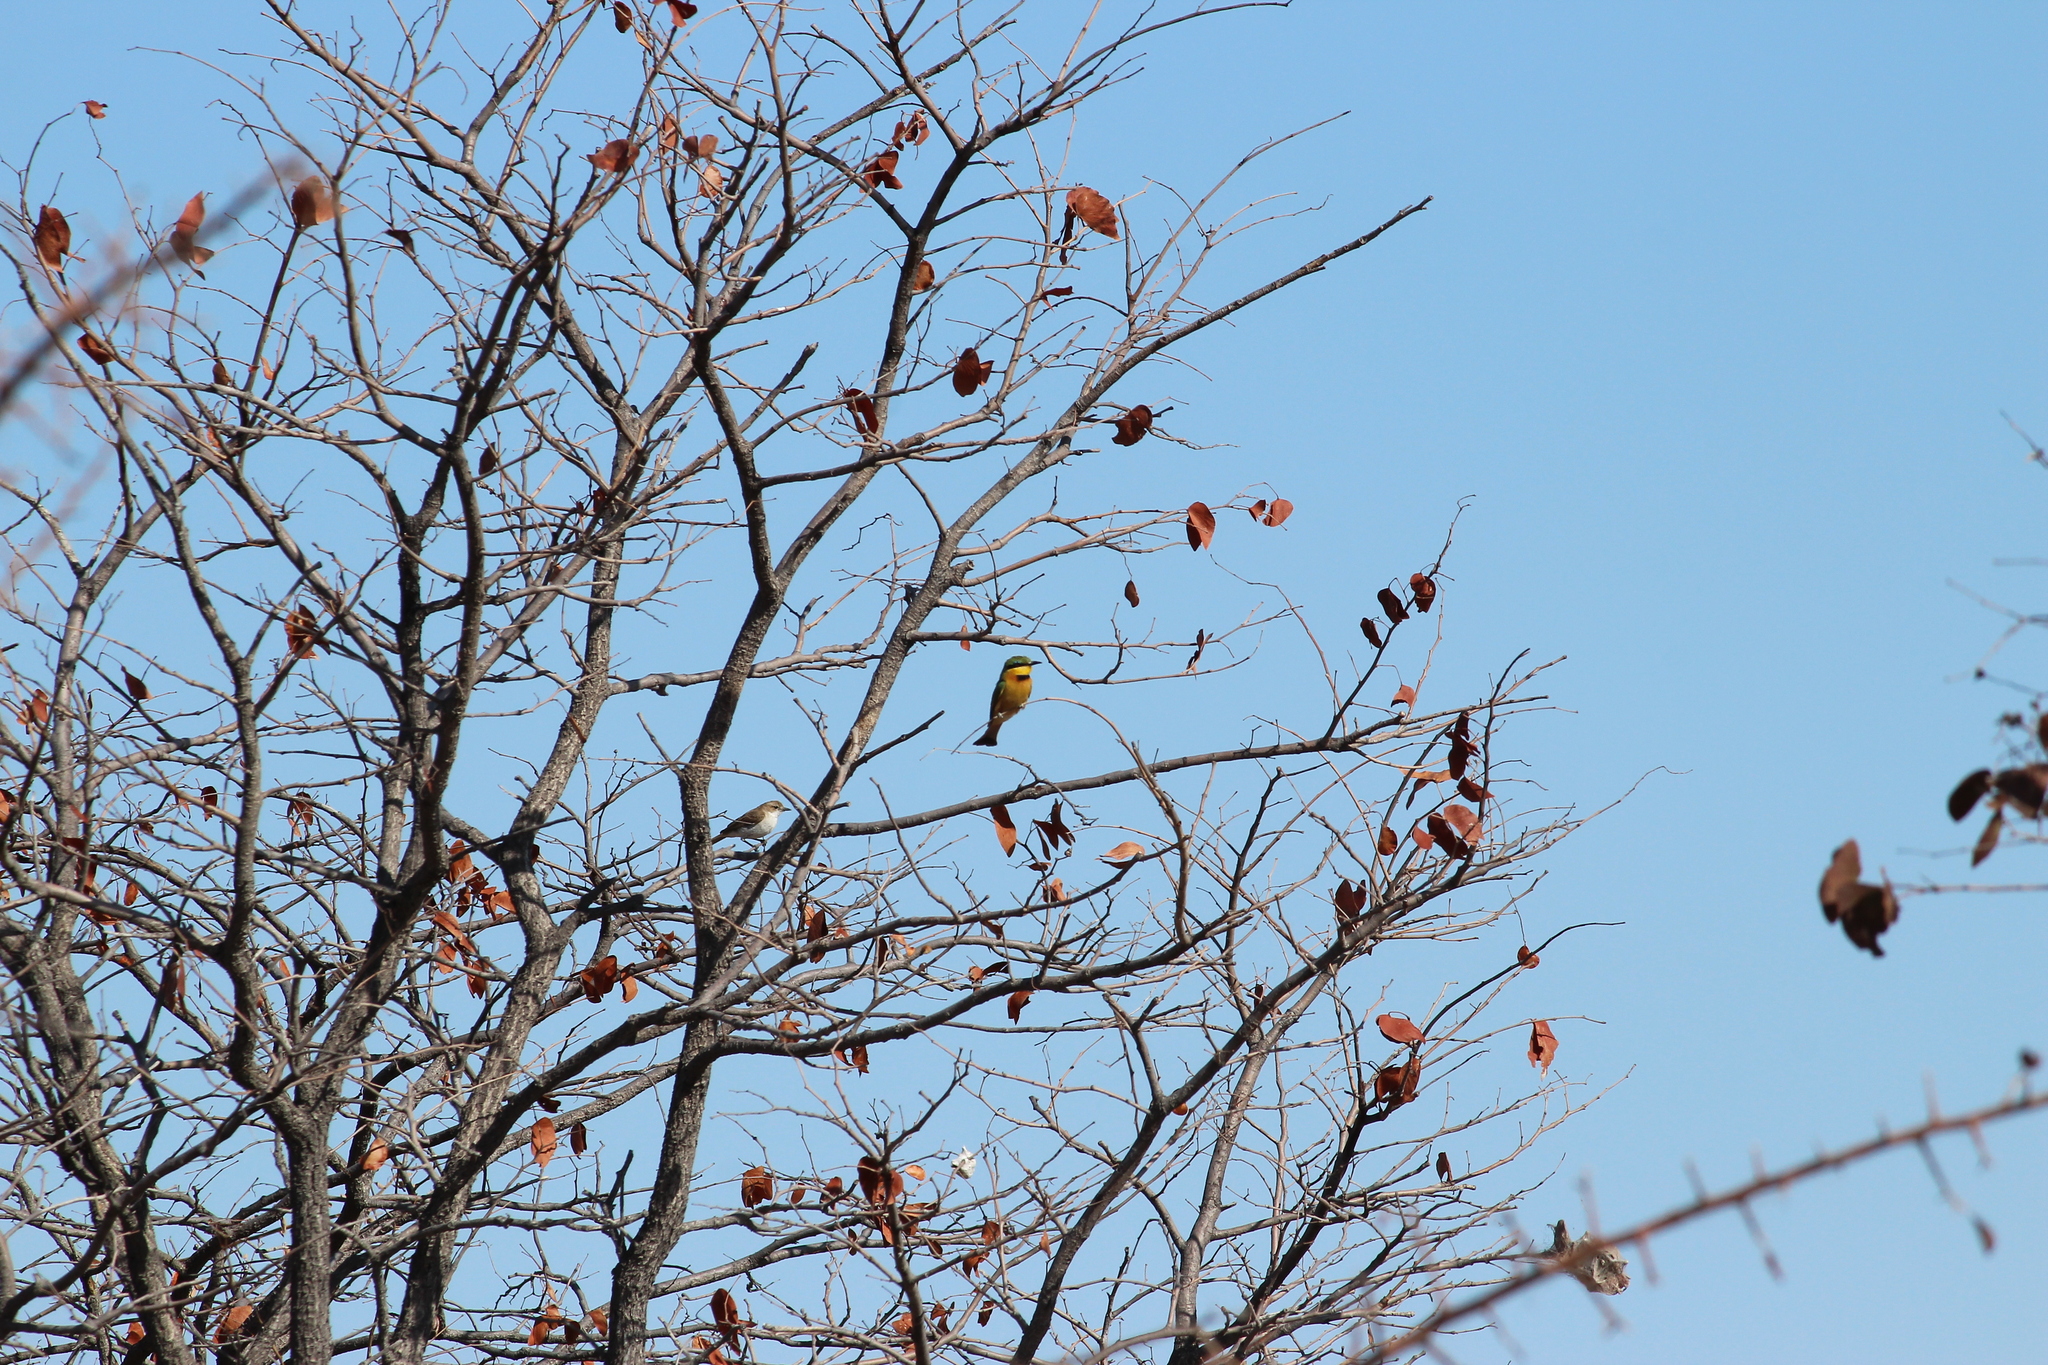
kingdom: Animalia
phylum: Chordata
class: Aves
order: Coraciiformes
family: Meropidae
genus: Merops
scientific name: Merops pusillus
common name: Little bee-eater
